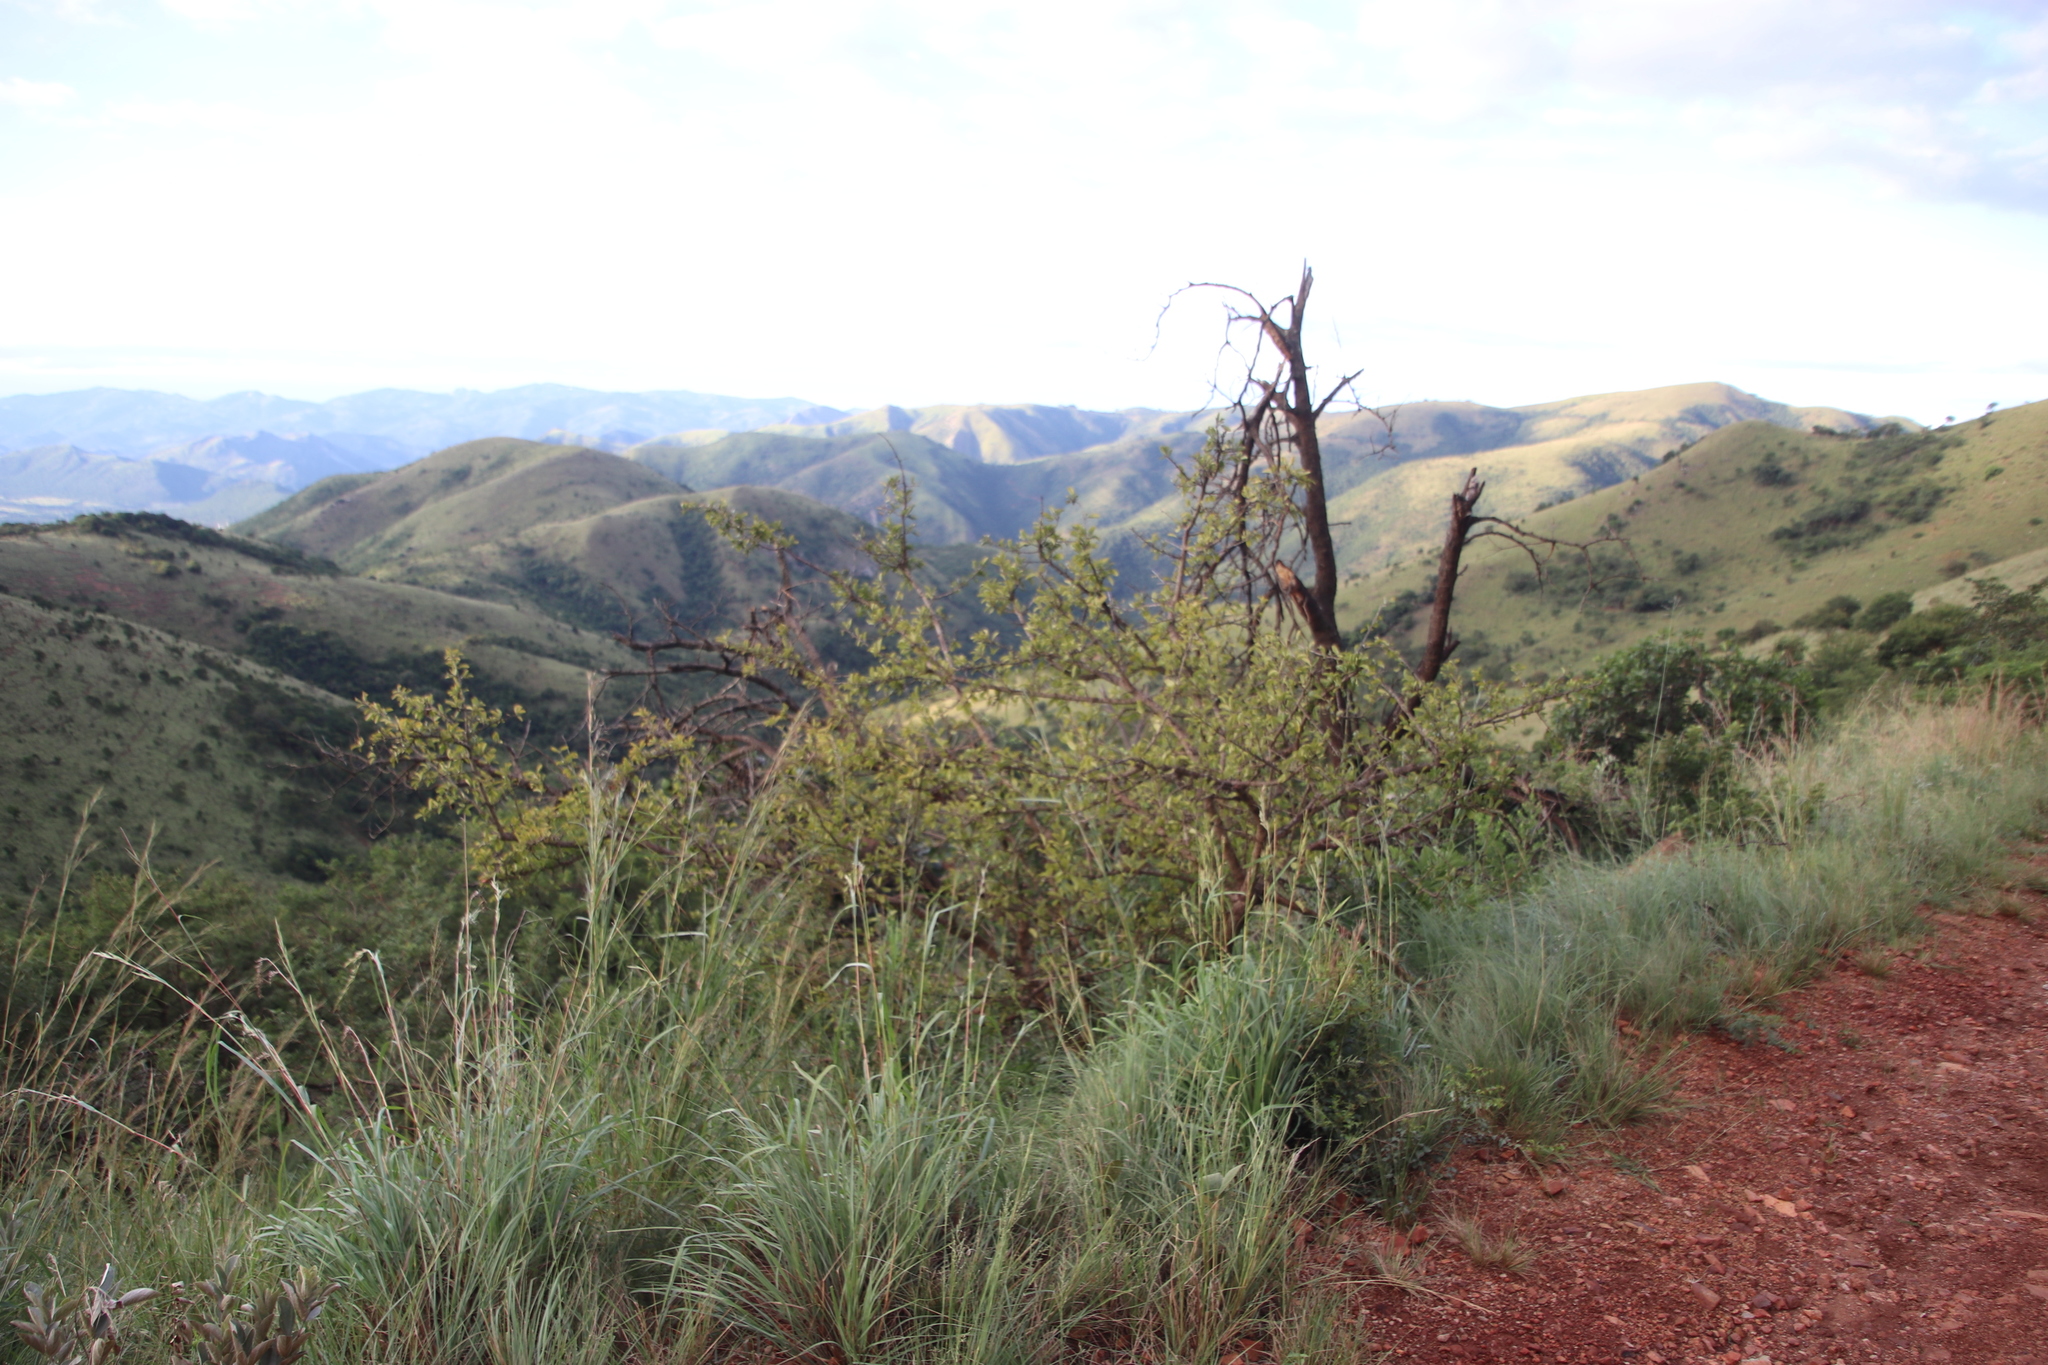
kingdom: Plantae
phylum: Tracheophyta
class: Magnoliopsida
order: Santalales
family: Ximeniaceae
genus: Ximenia
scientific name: Ximenia caffra
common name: Large sourplum
